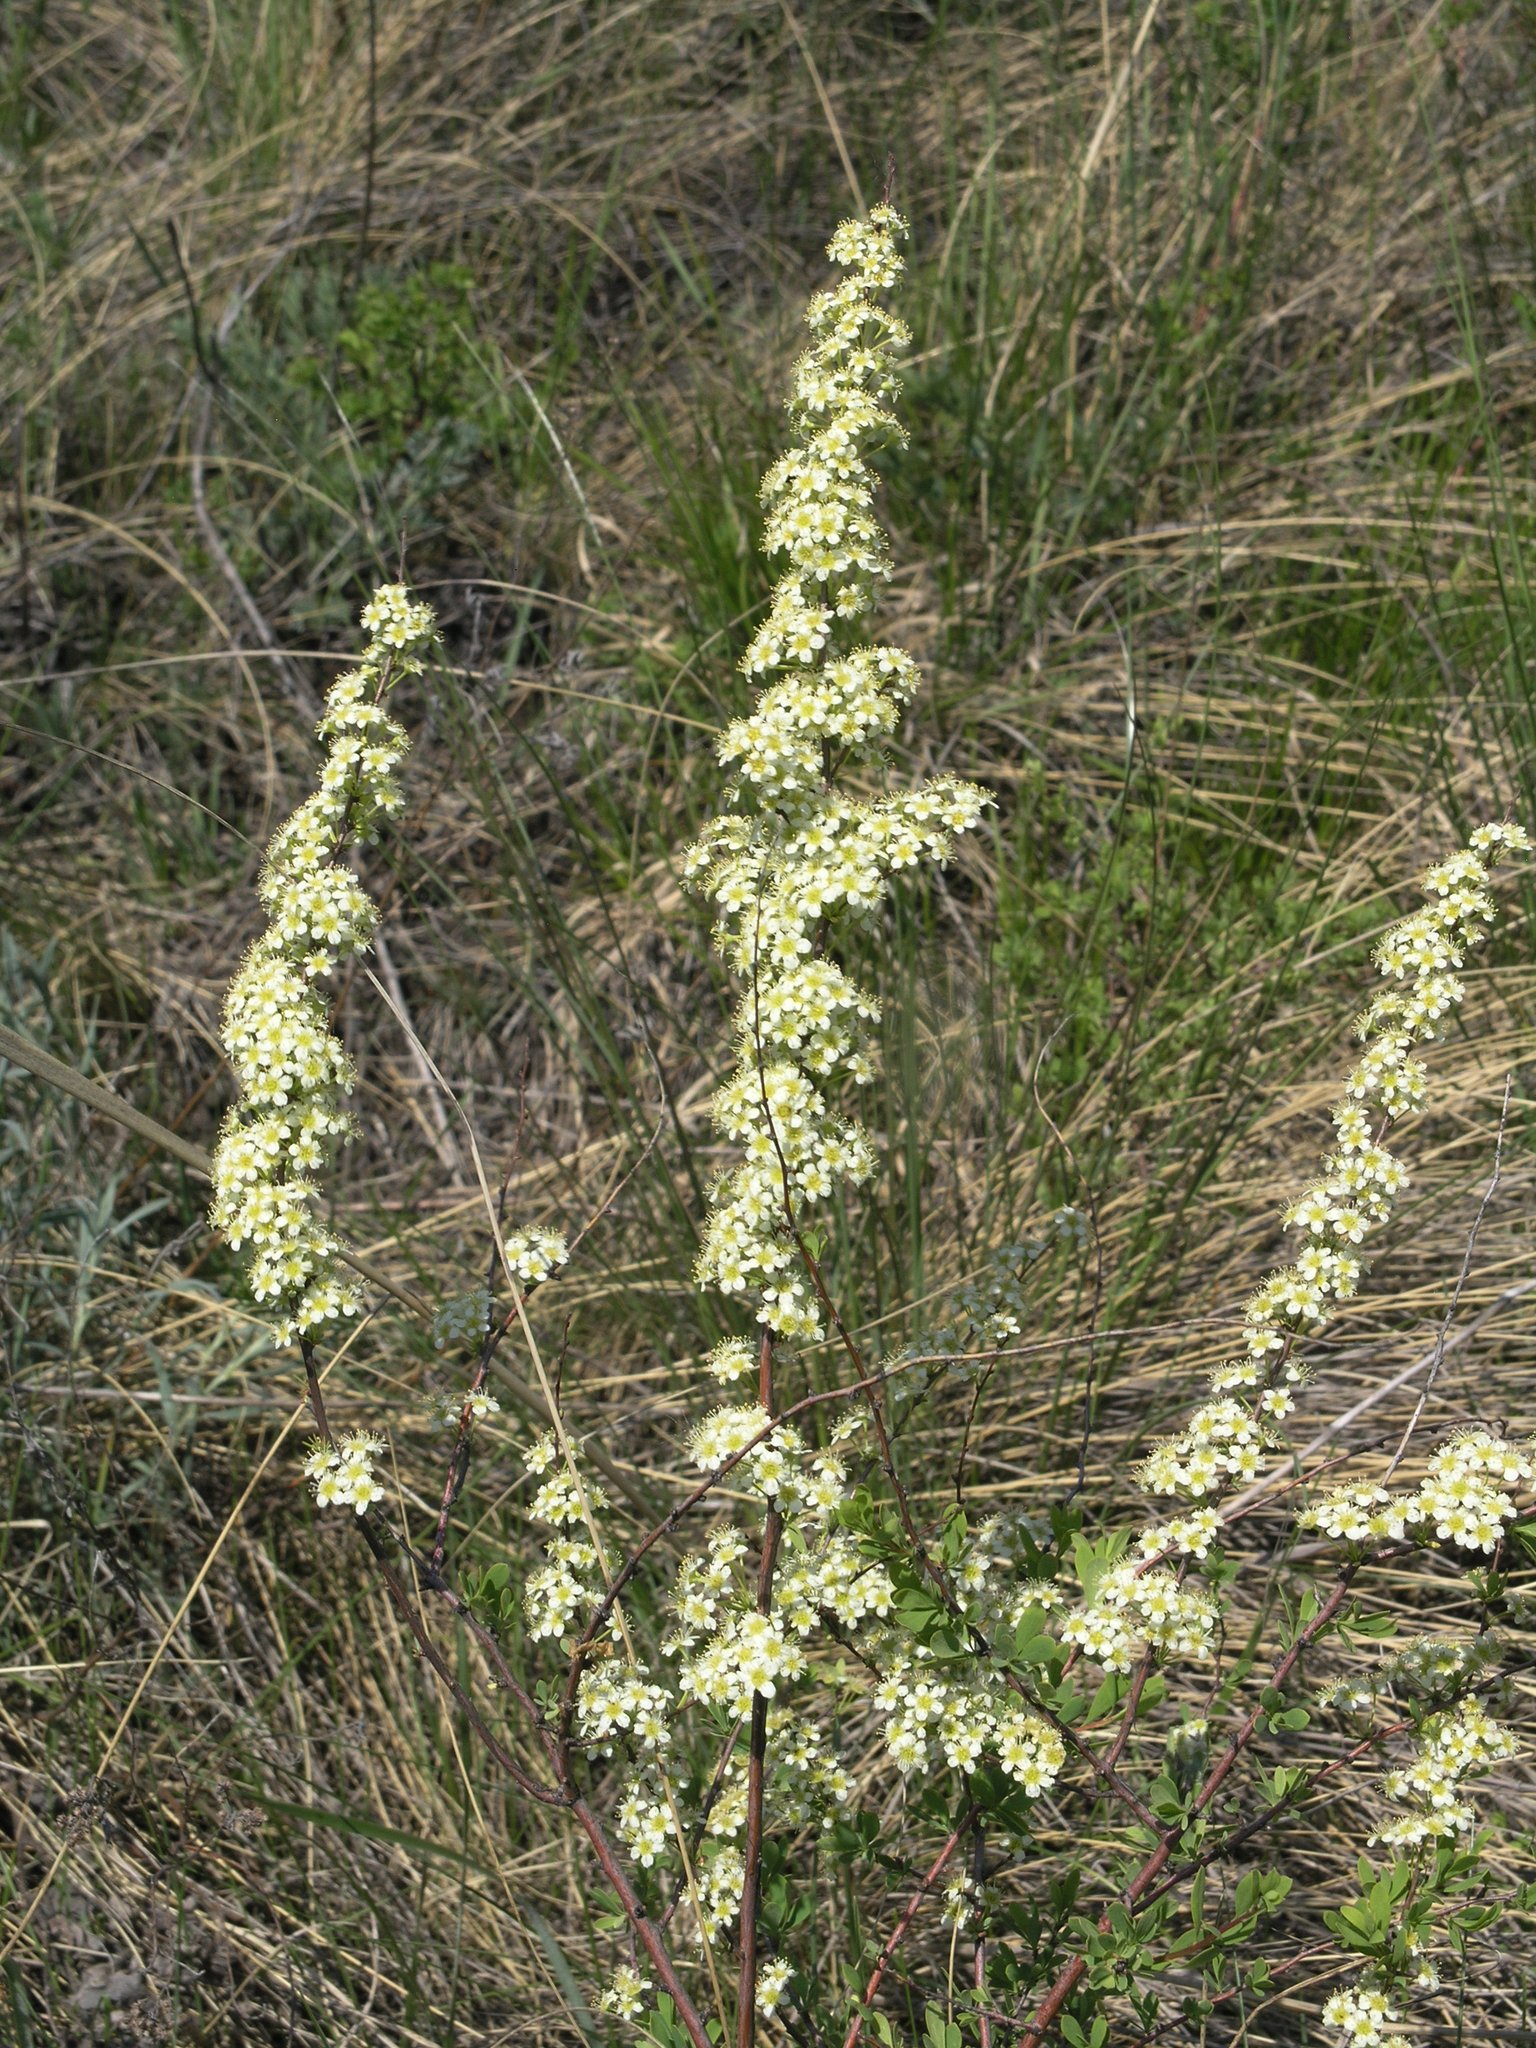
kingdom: Plantae
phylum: Tracheophyta
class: Magnoliopsida
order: Rosales
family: Rosaceae
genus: Spiraea
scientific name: Spiraea hypericifolia
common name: Iberian spirea
